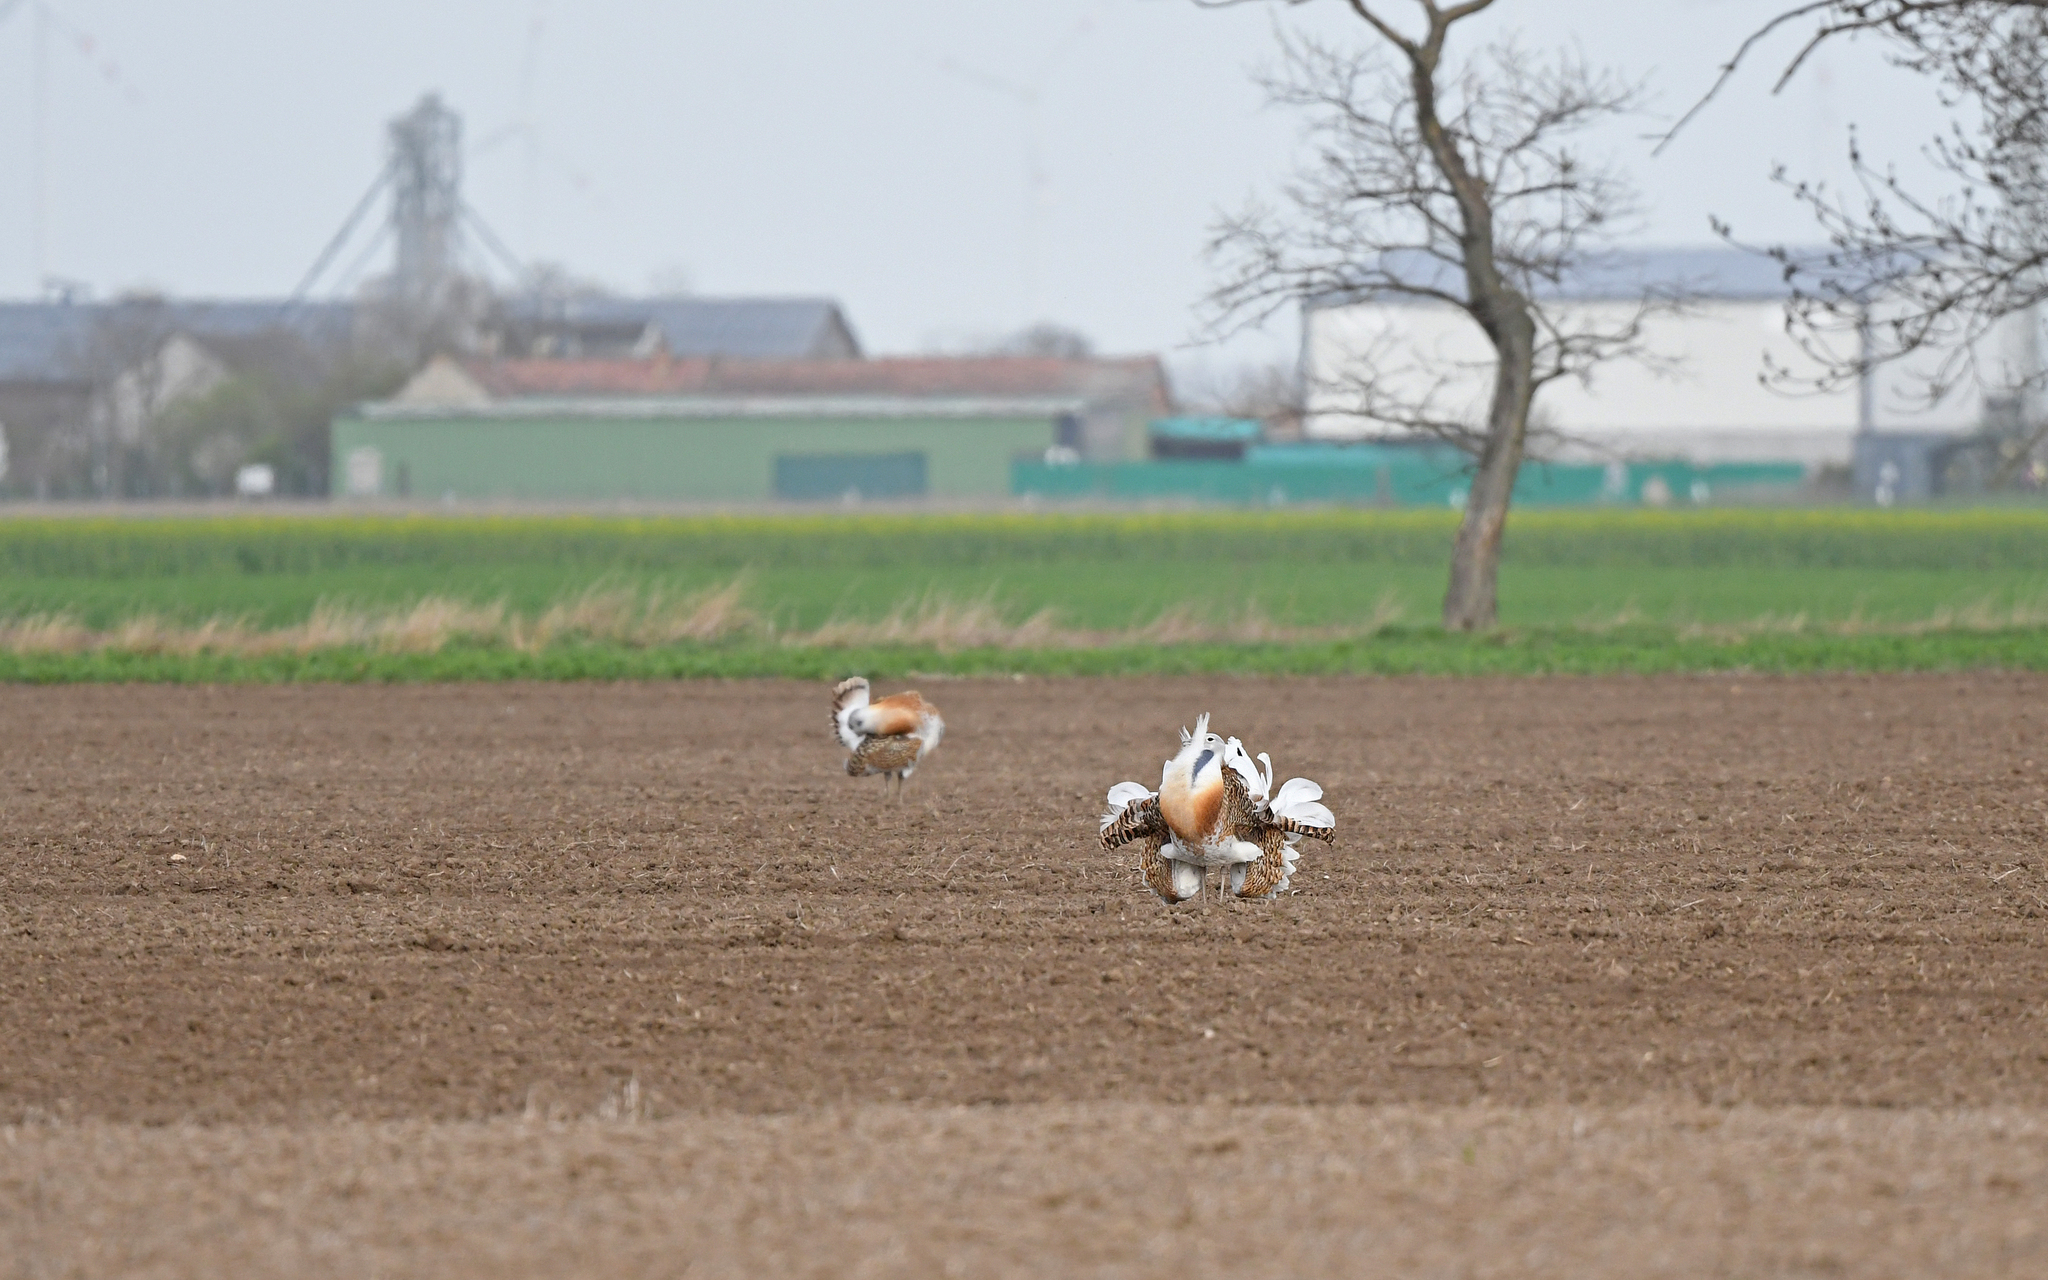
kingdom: Animalia
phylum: Chordata
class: Aves
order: Otidiformes
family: Otididae
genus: Otis
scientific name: Otis tarda
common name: Great bustard
